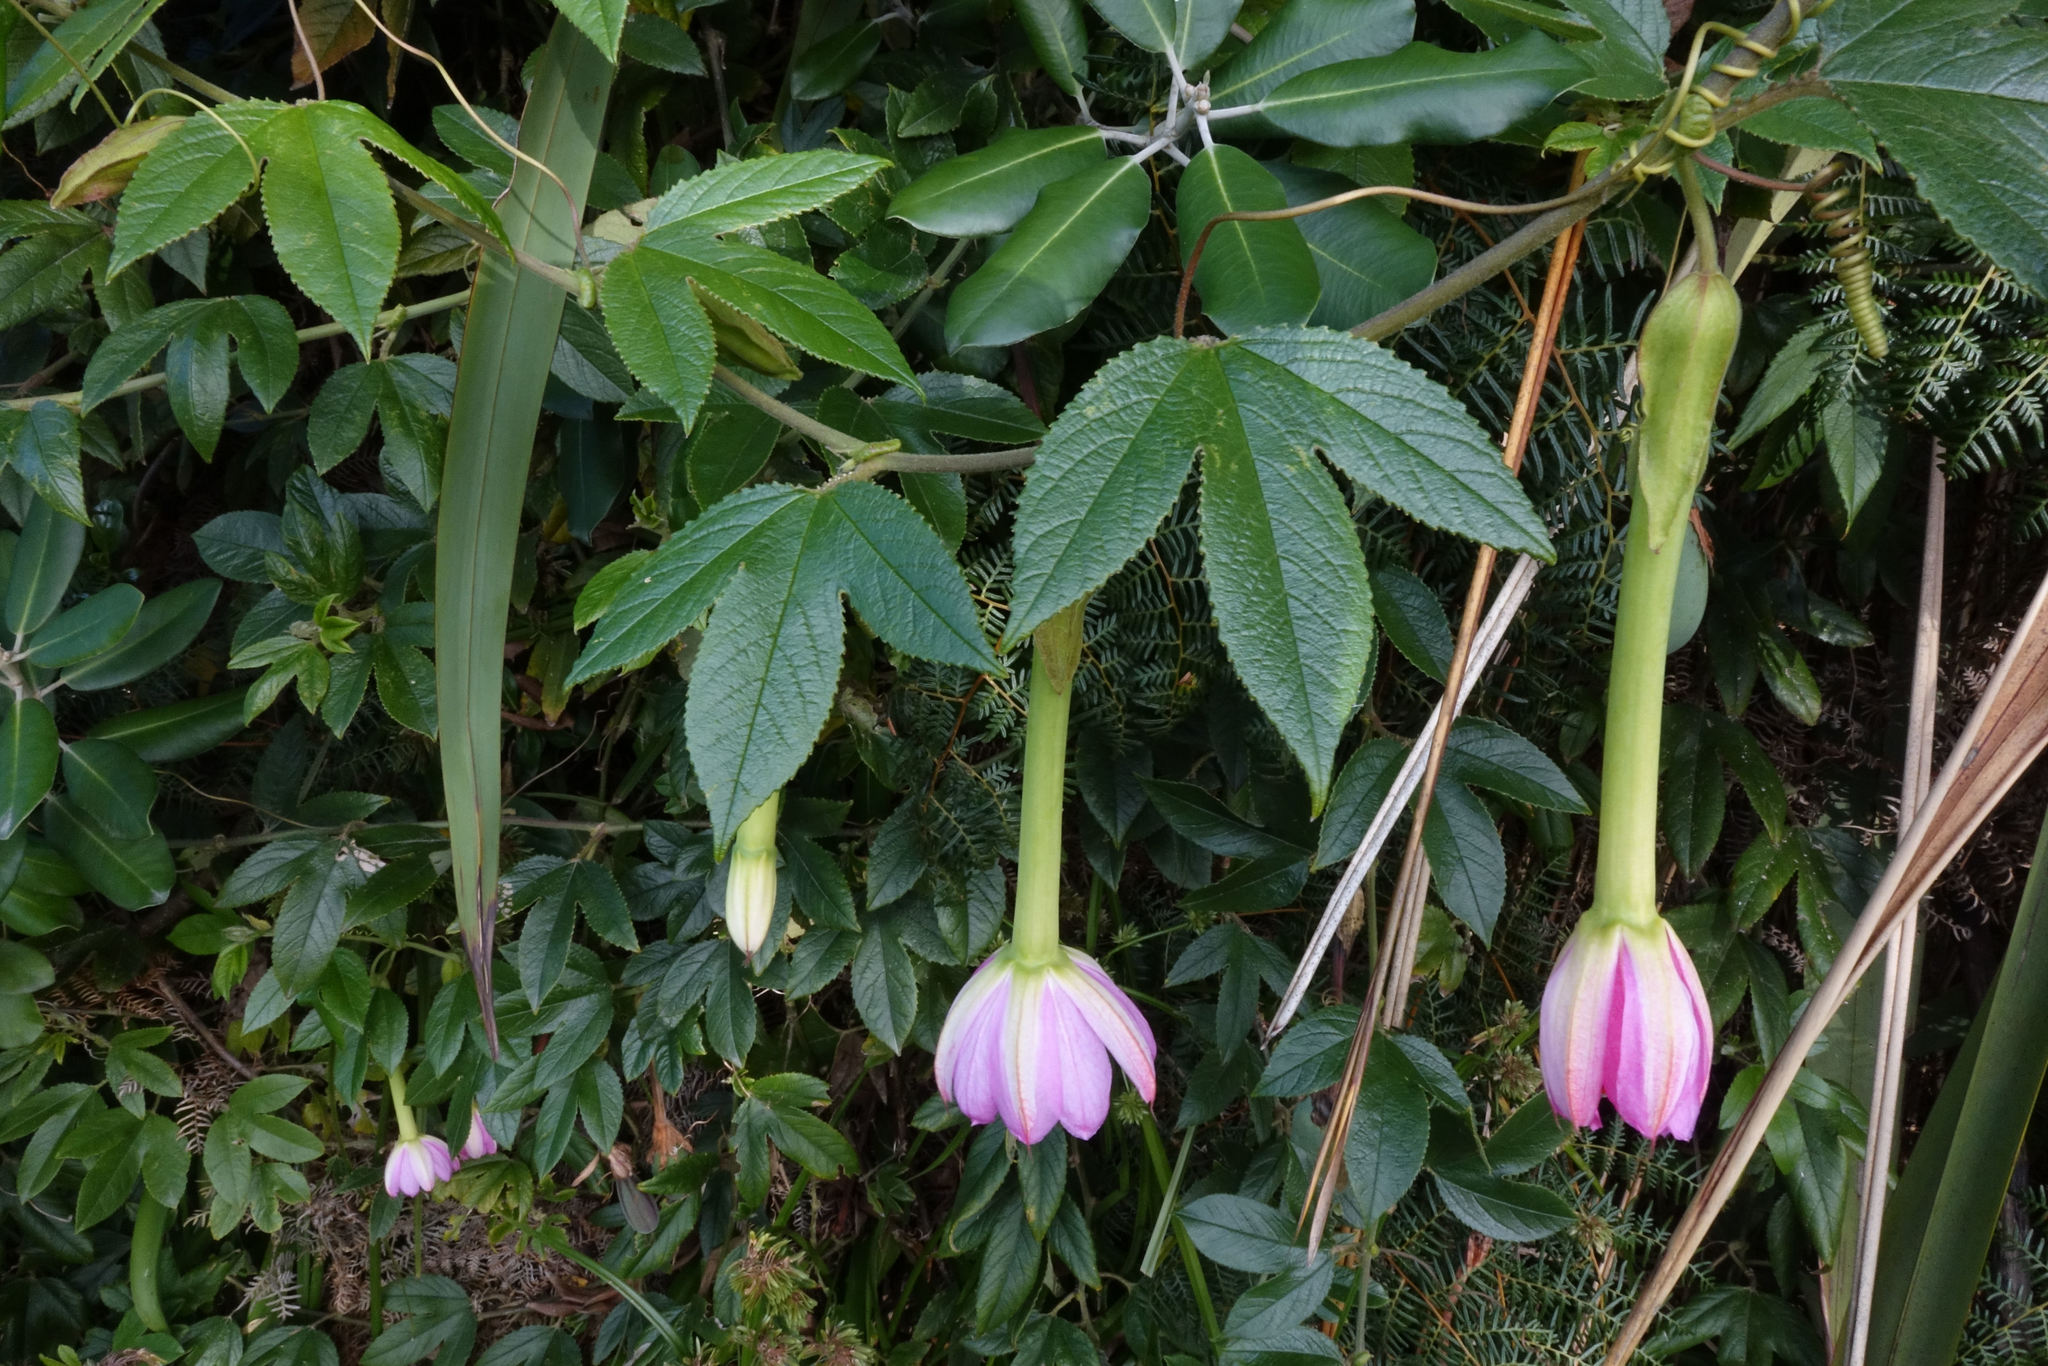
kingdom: Plantae
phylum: Tracheophyta
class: Magnoliopsida
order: Malpighiales
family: Passifloraceae
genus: Passiflora
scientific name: Passiflora tripartita
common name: Banana poka
